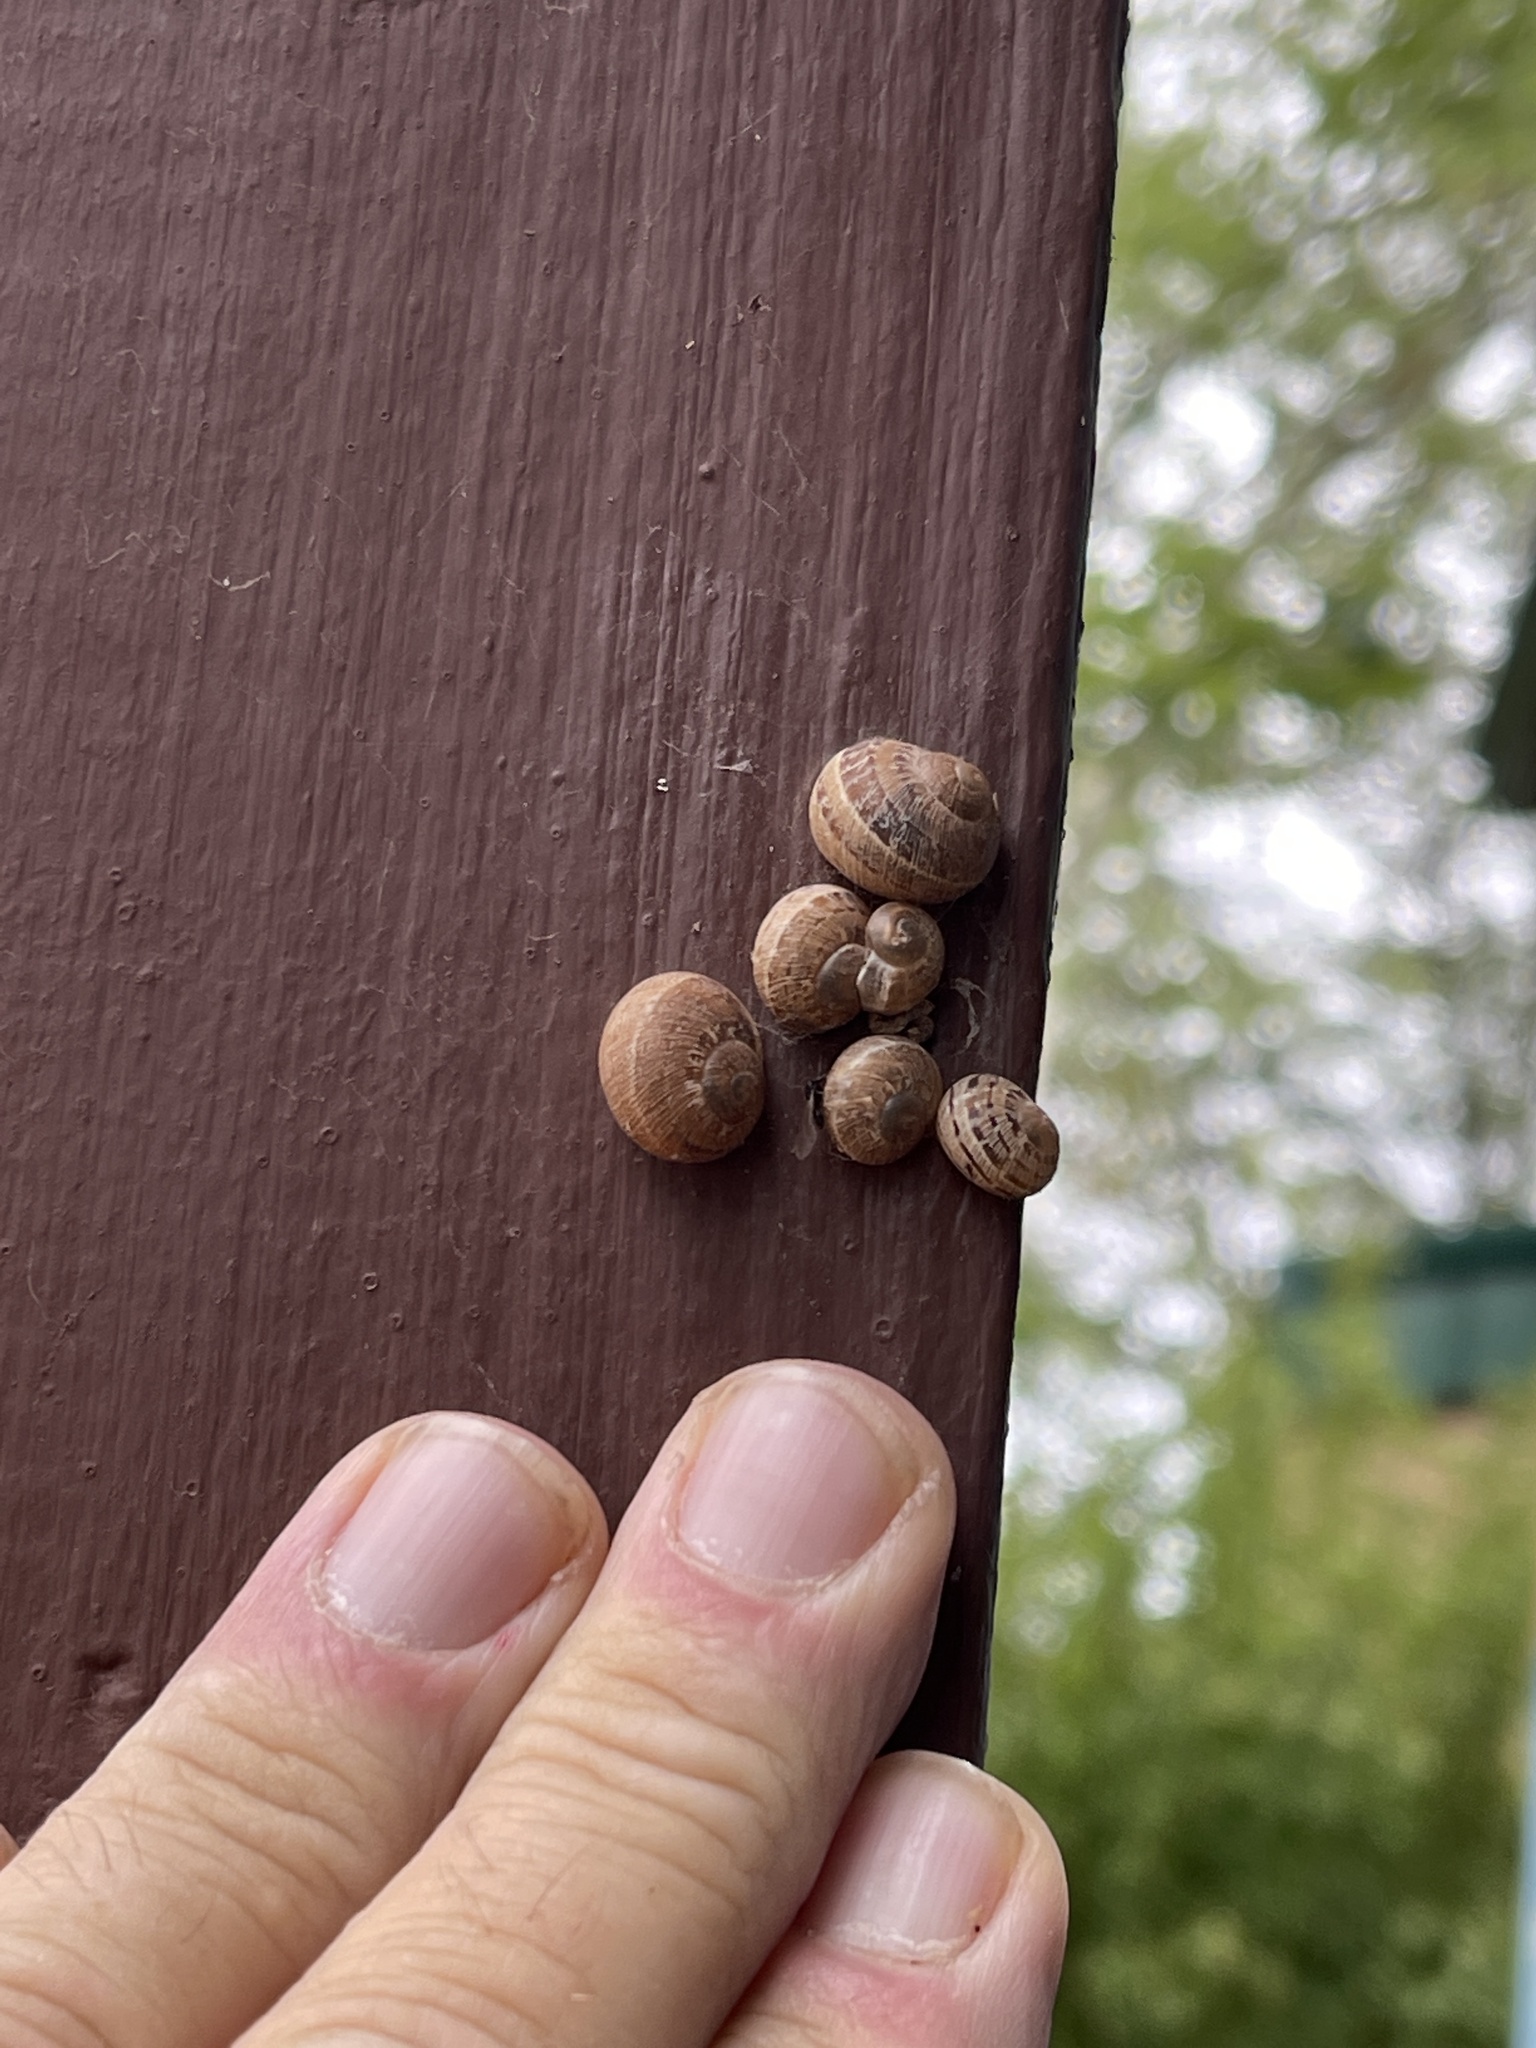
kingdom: Animalia
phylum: Mollusca
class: Gastropoda
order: Stylommatophora
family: Helicidae
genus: Cornu
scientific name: Cornu aspersum
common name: Brown garden snail
